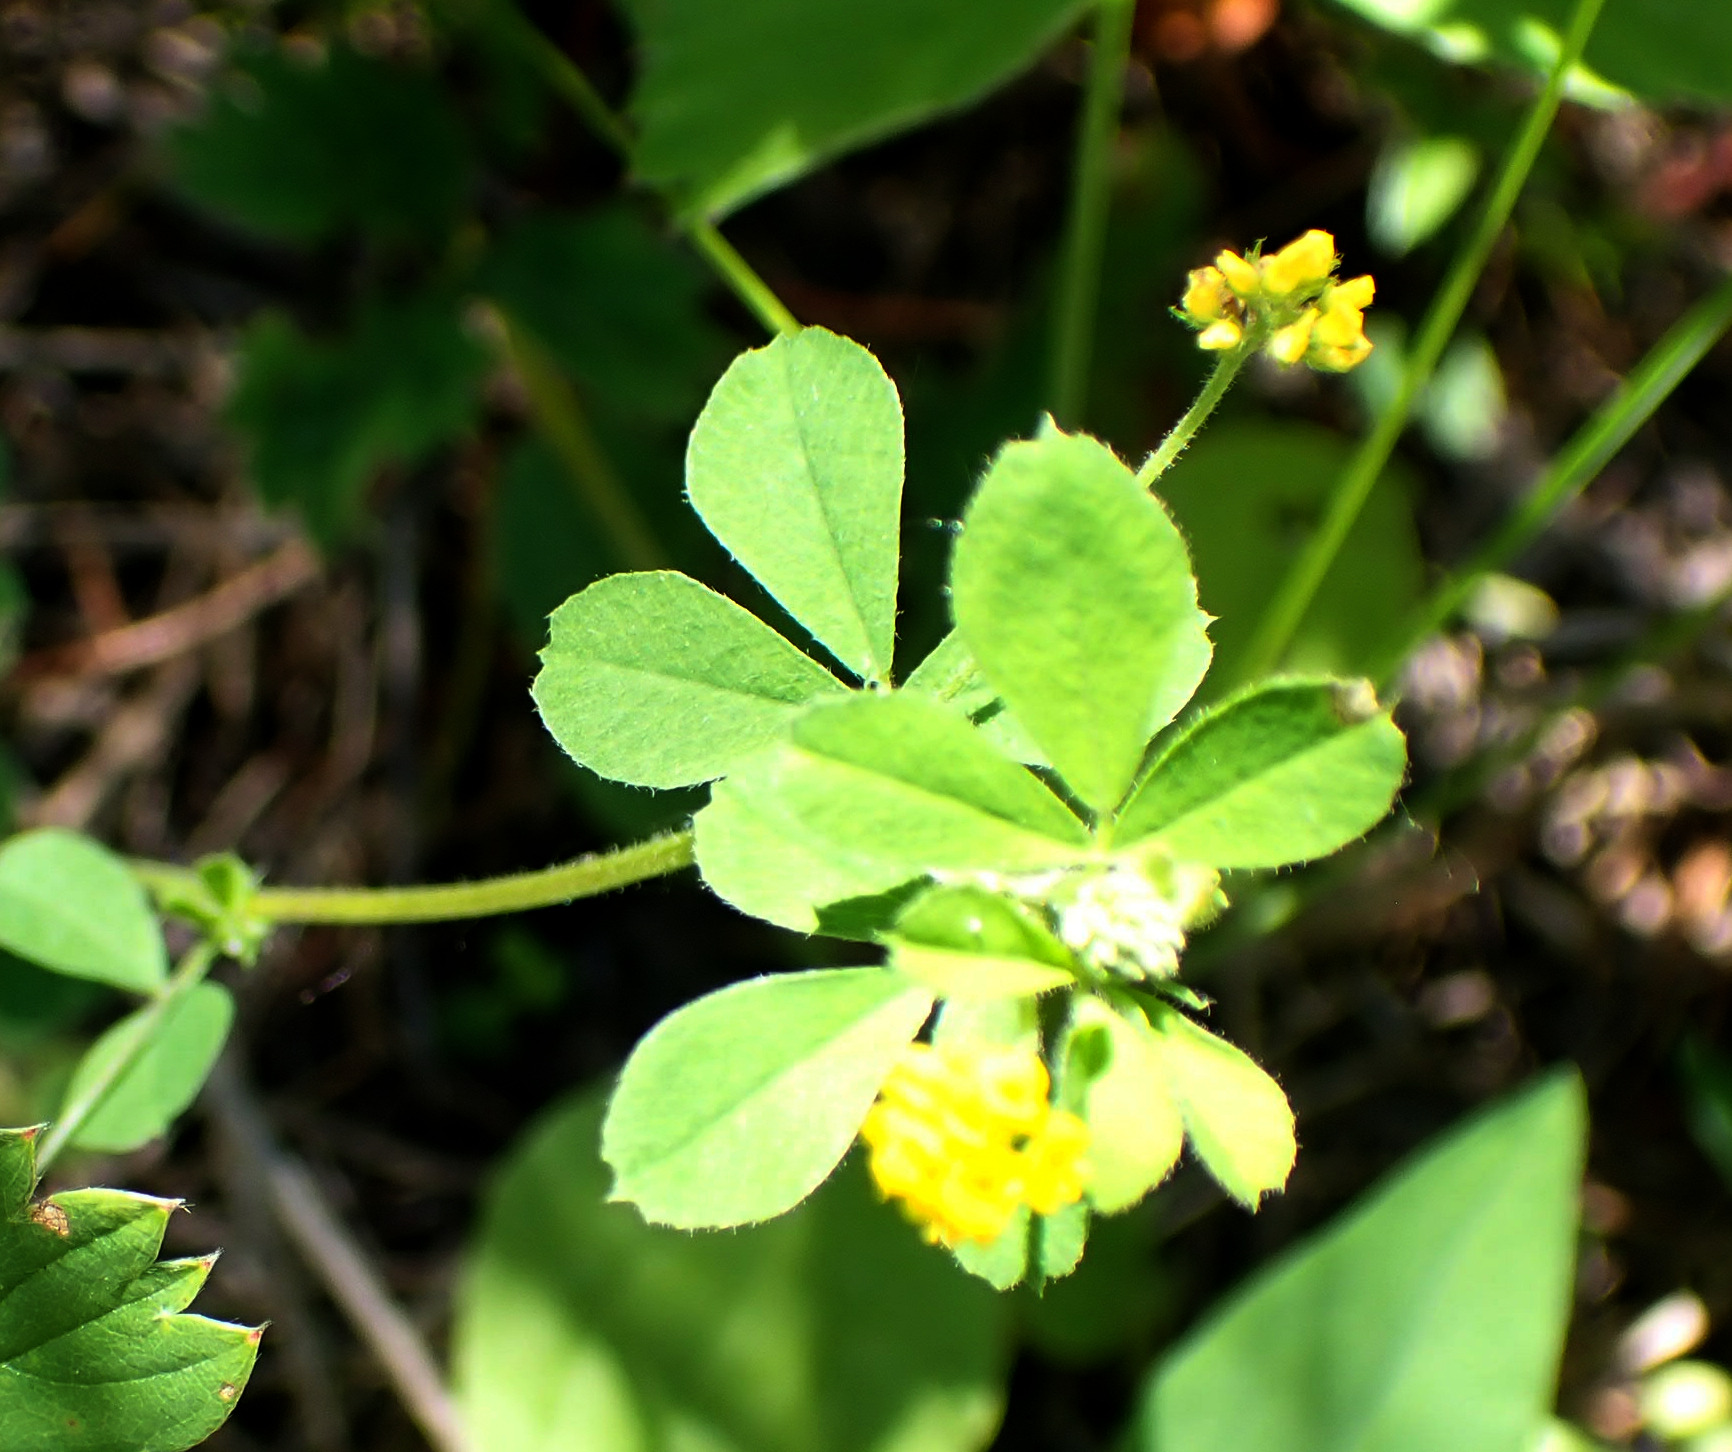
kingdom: Plantae
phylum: Tracheophyta
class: Magnoliopsida
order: Fabales
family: Fabaceae
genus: Medicago
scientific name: Medicago lupulina
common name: Black medick
